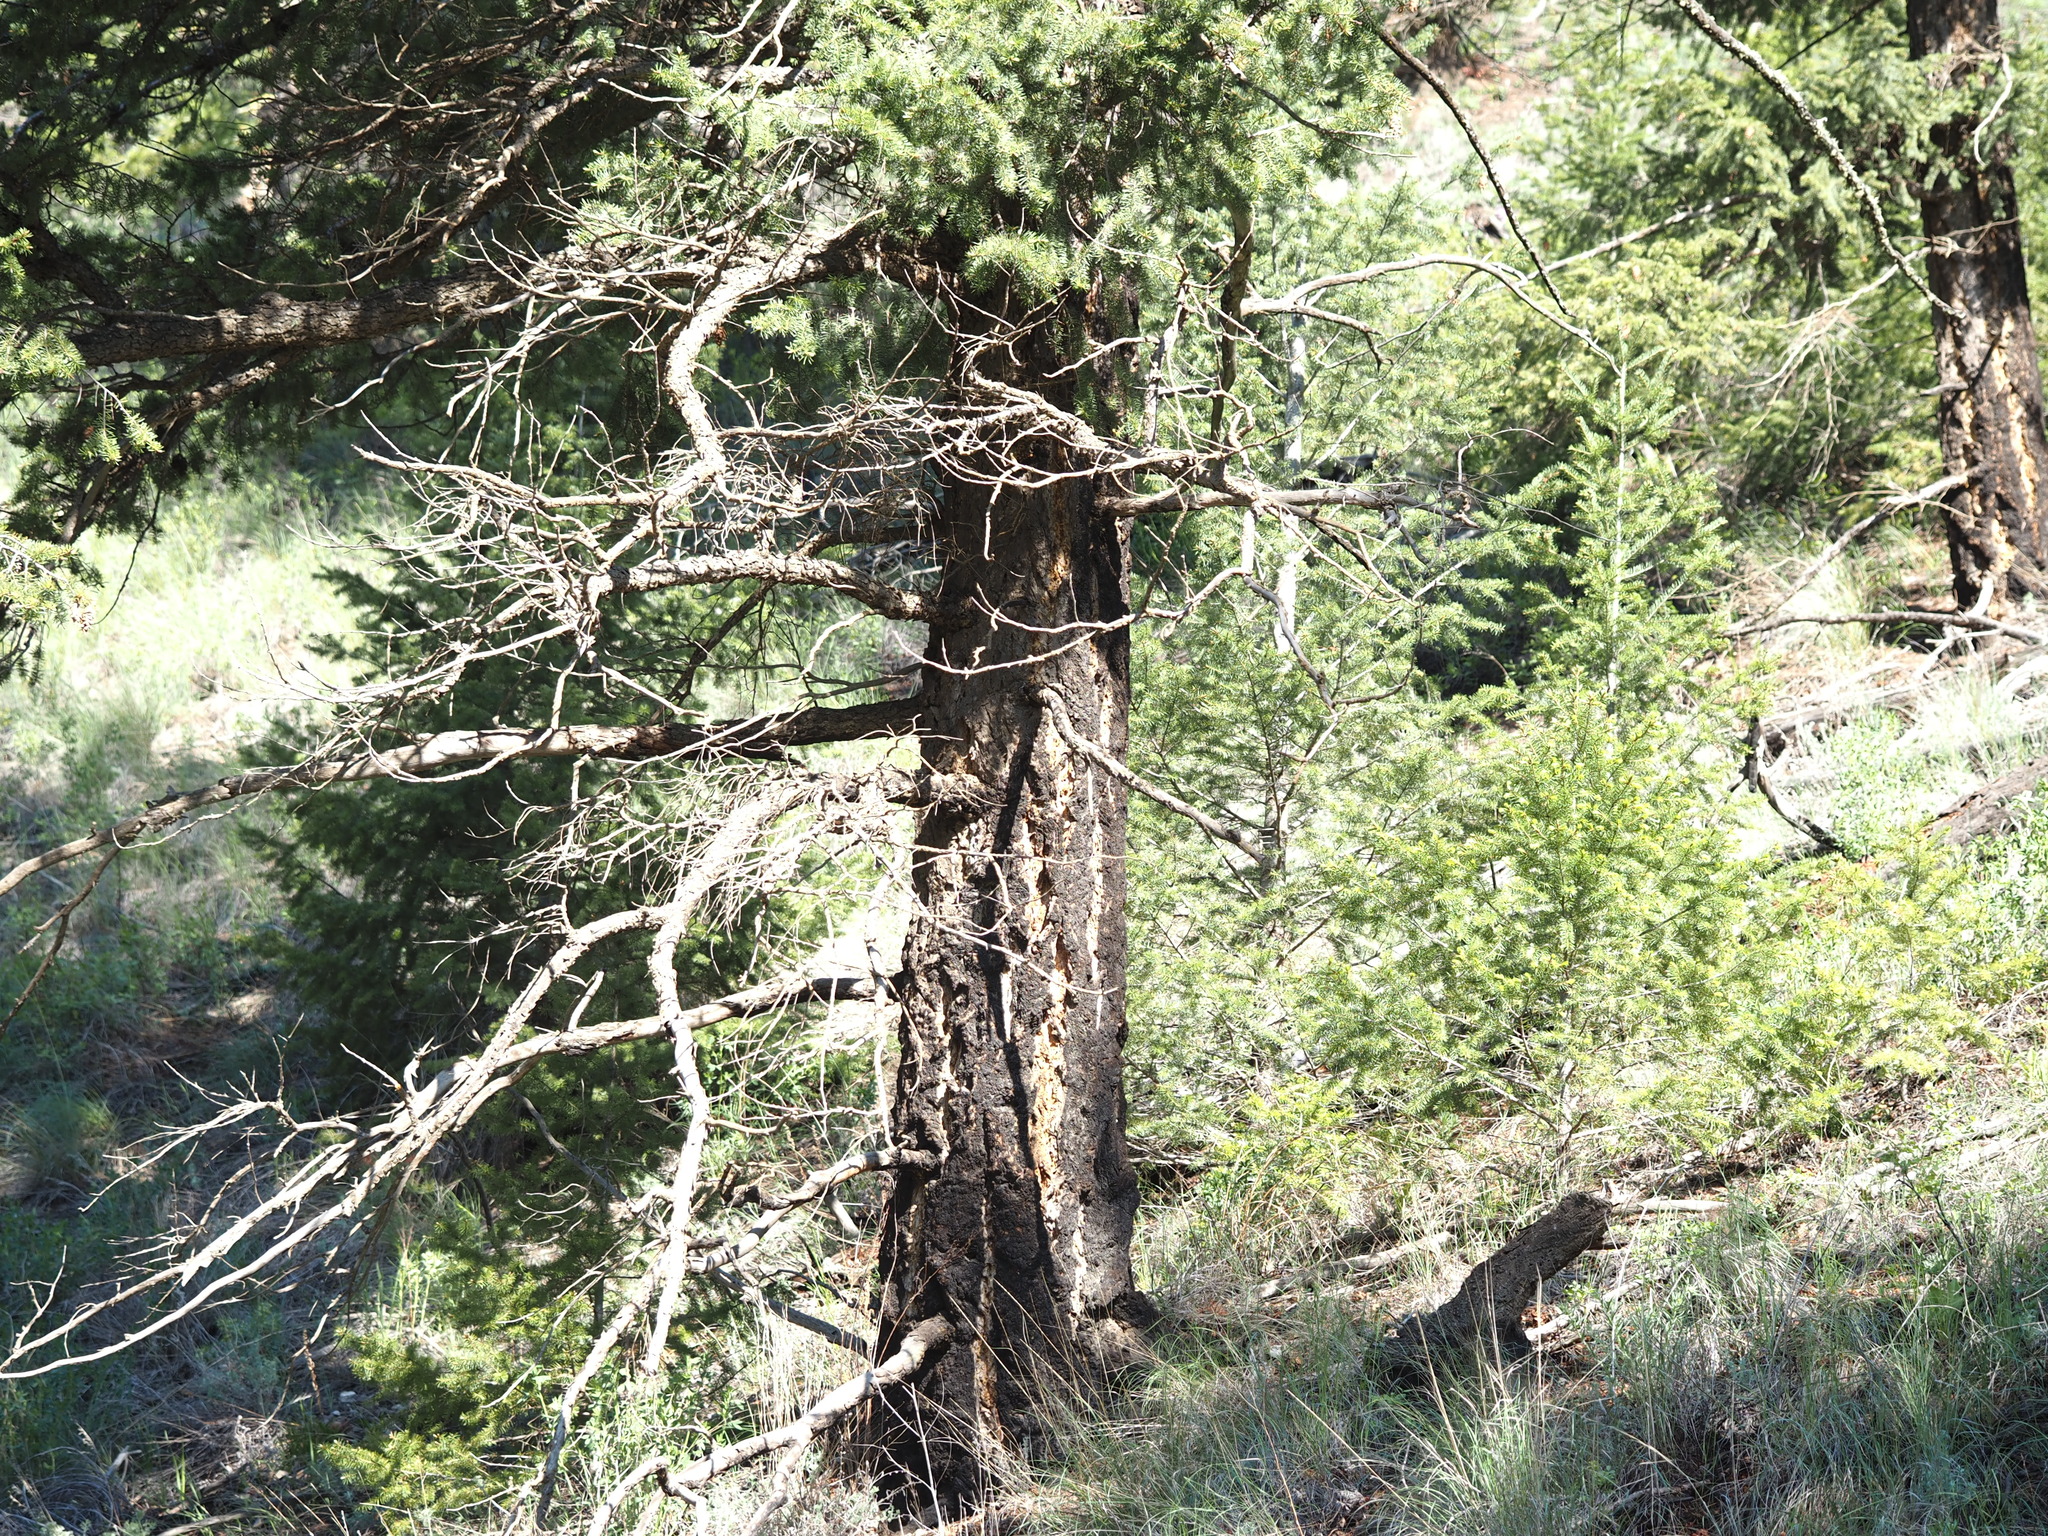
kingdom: Plantae
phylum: Tracheophyta
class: Pinopsida
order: Pinales
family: Pinaceae
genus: Pseudotsuga
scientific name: Pseudotsuga menziesii
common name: Douglas fir
